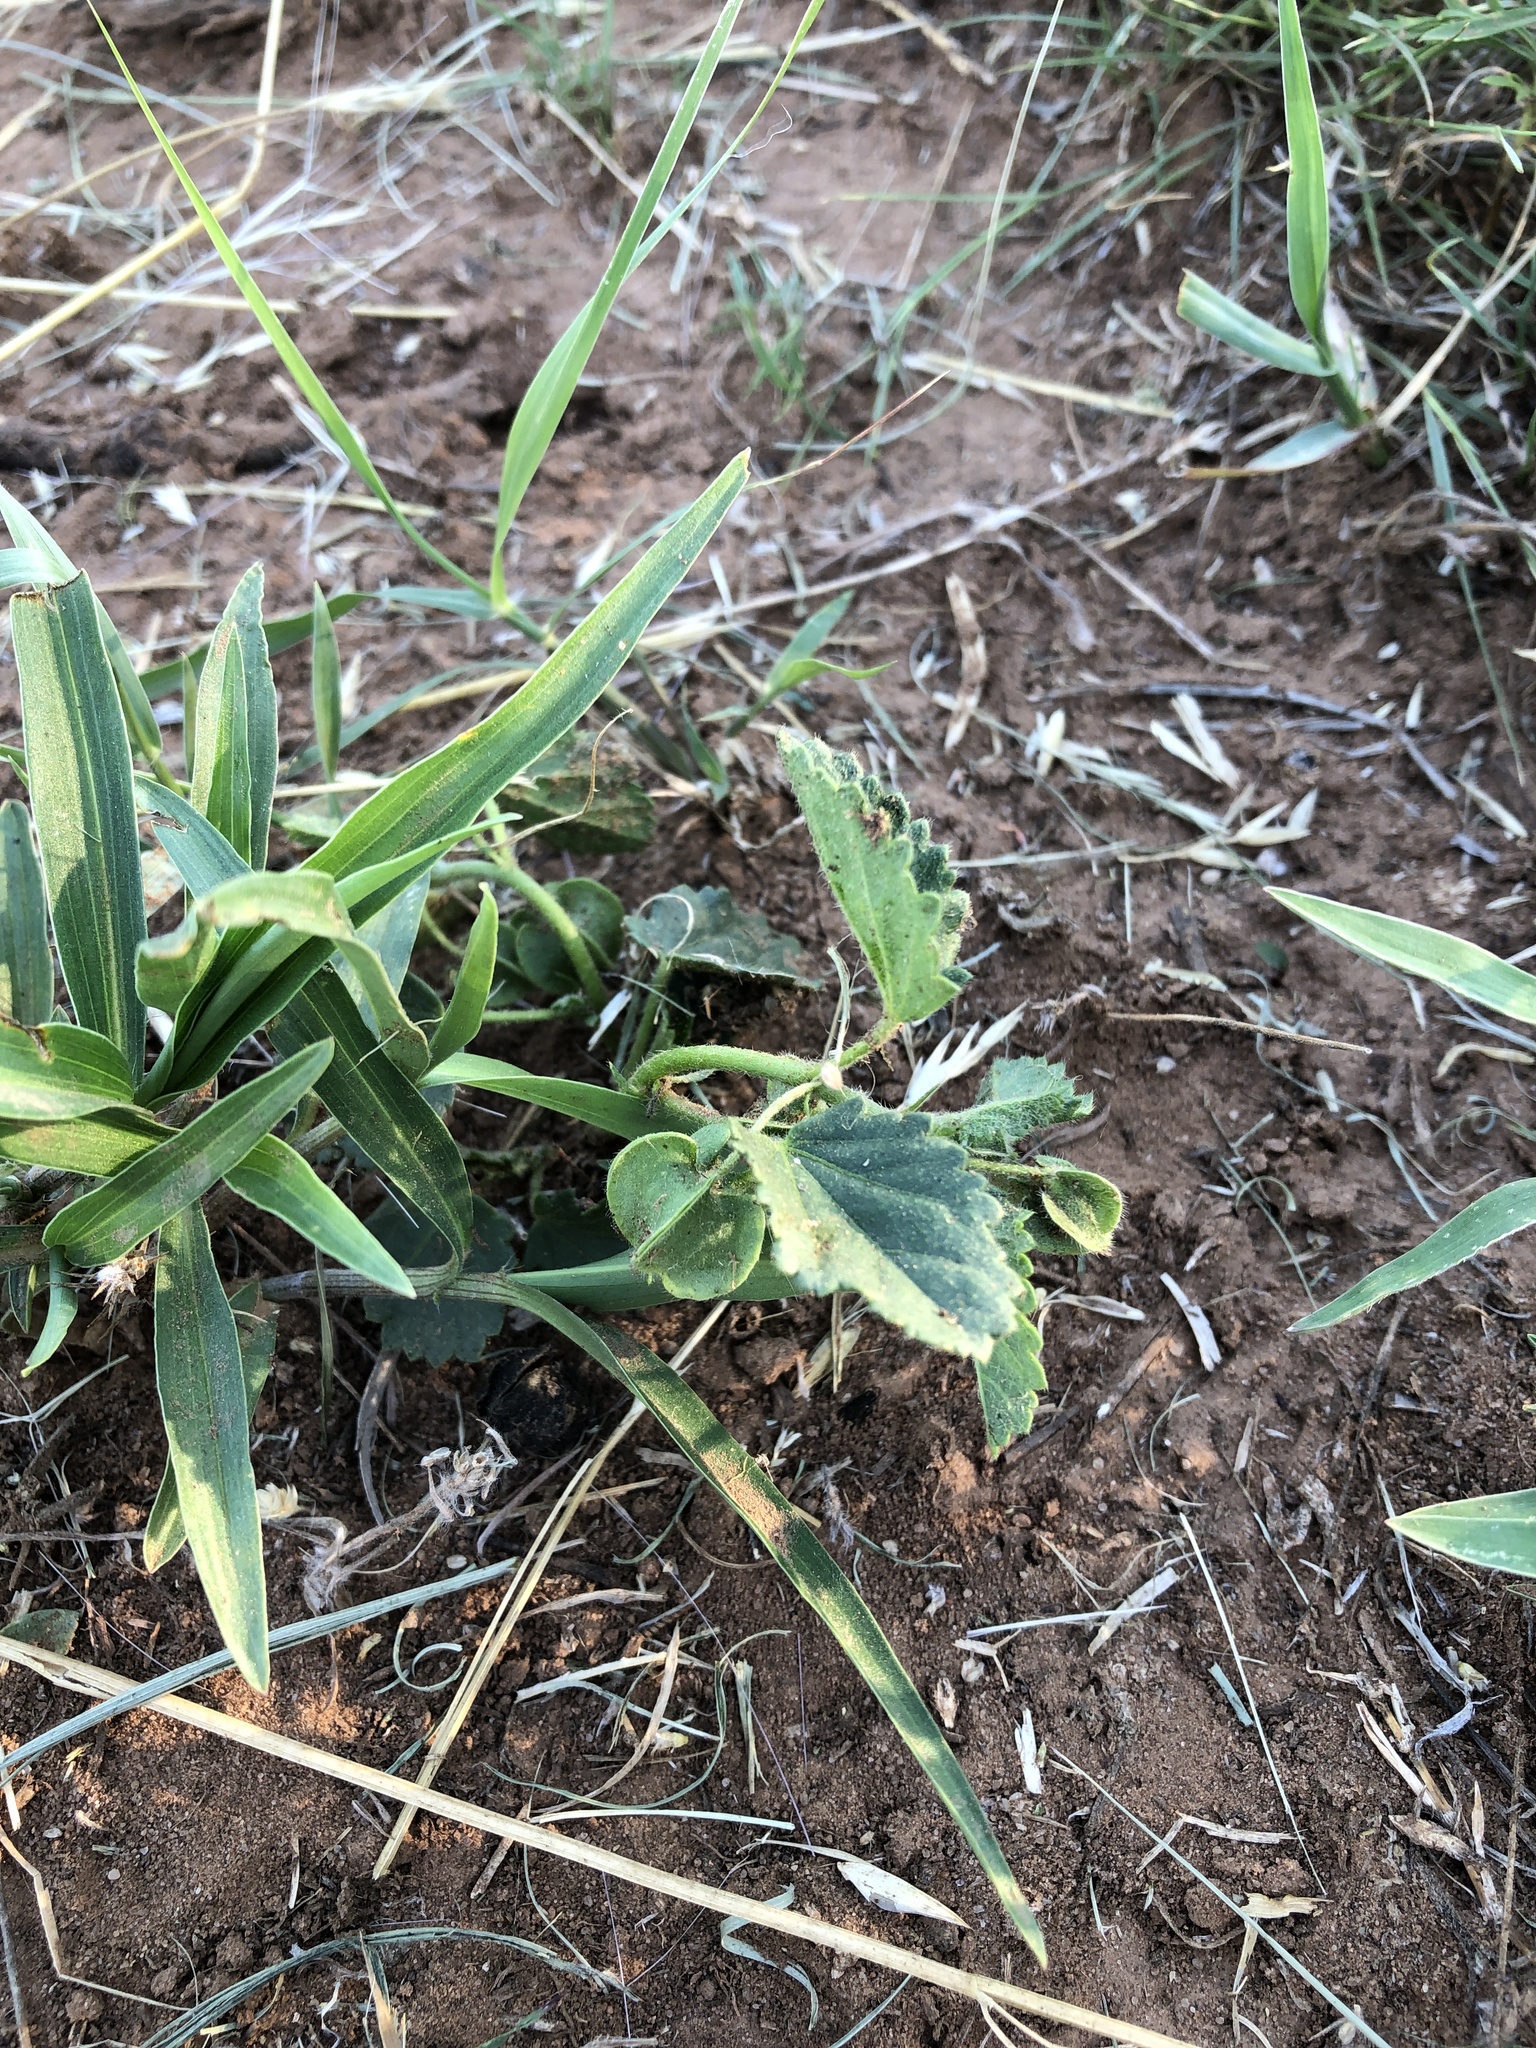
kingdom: Plantae
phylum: Tracheophyta
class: Magnoliopsida
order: Malvales
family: Malvaceae
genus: Rhynchosida
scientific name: Rhynchosida physocalyx
